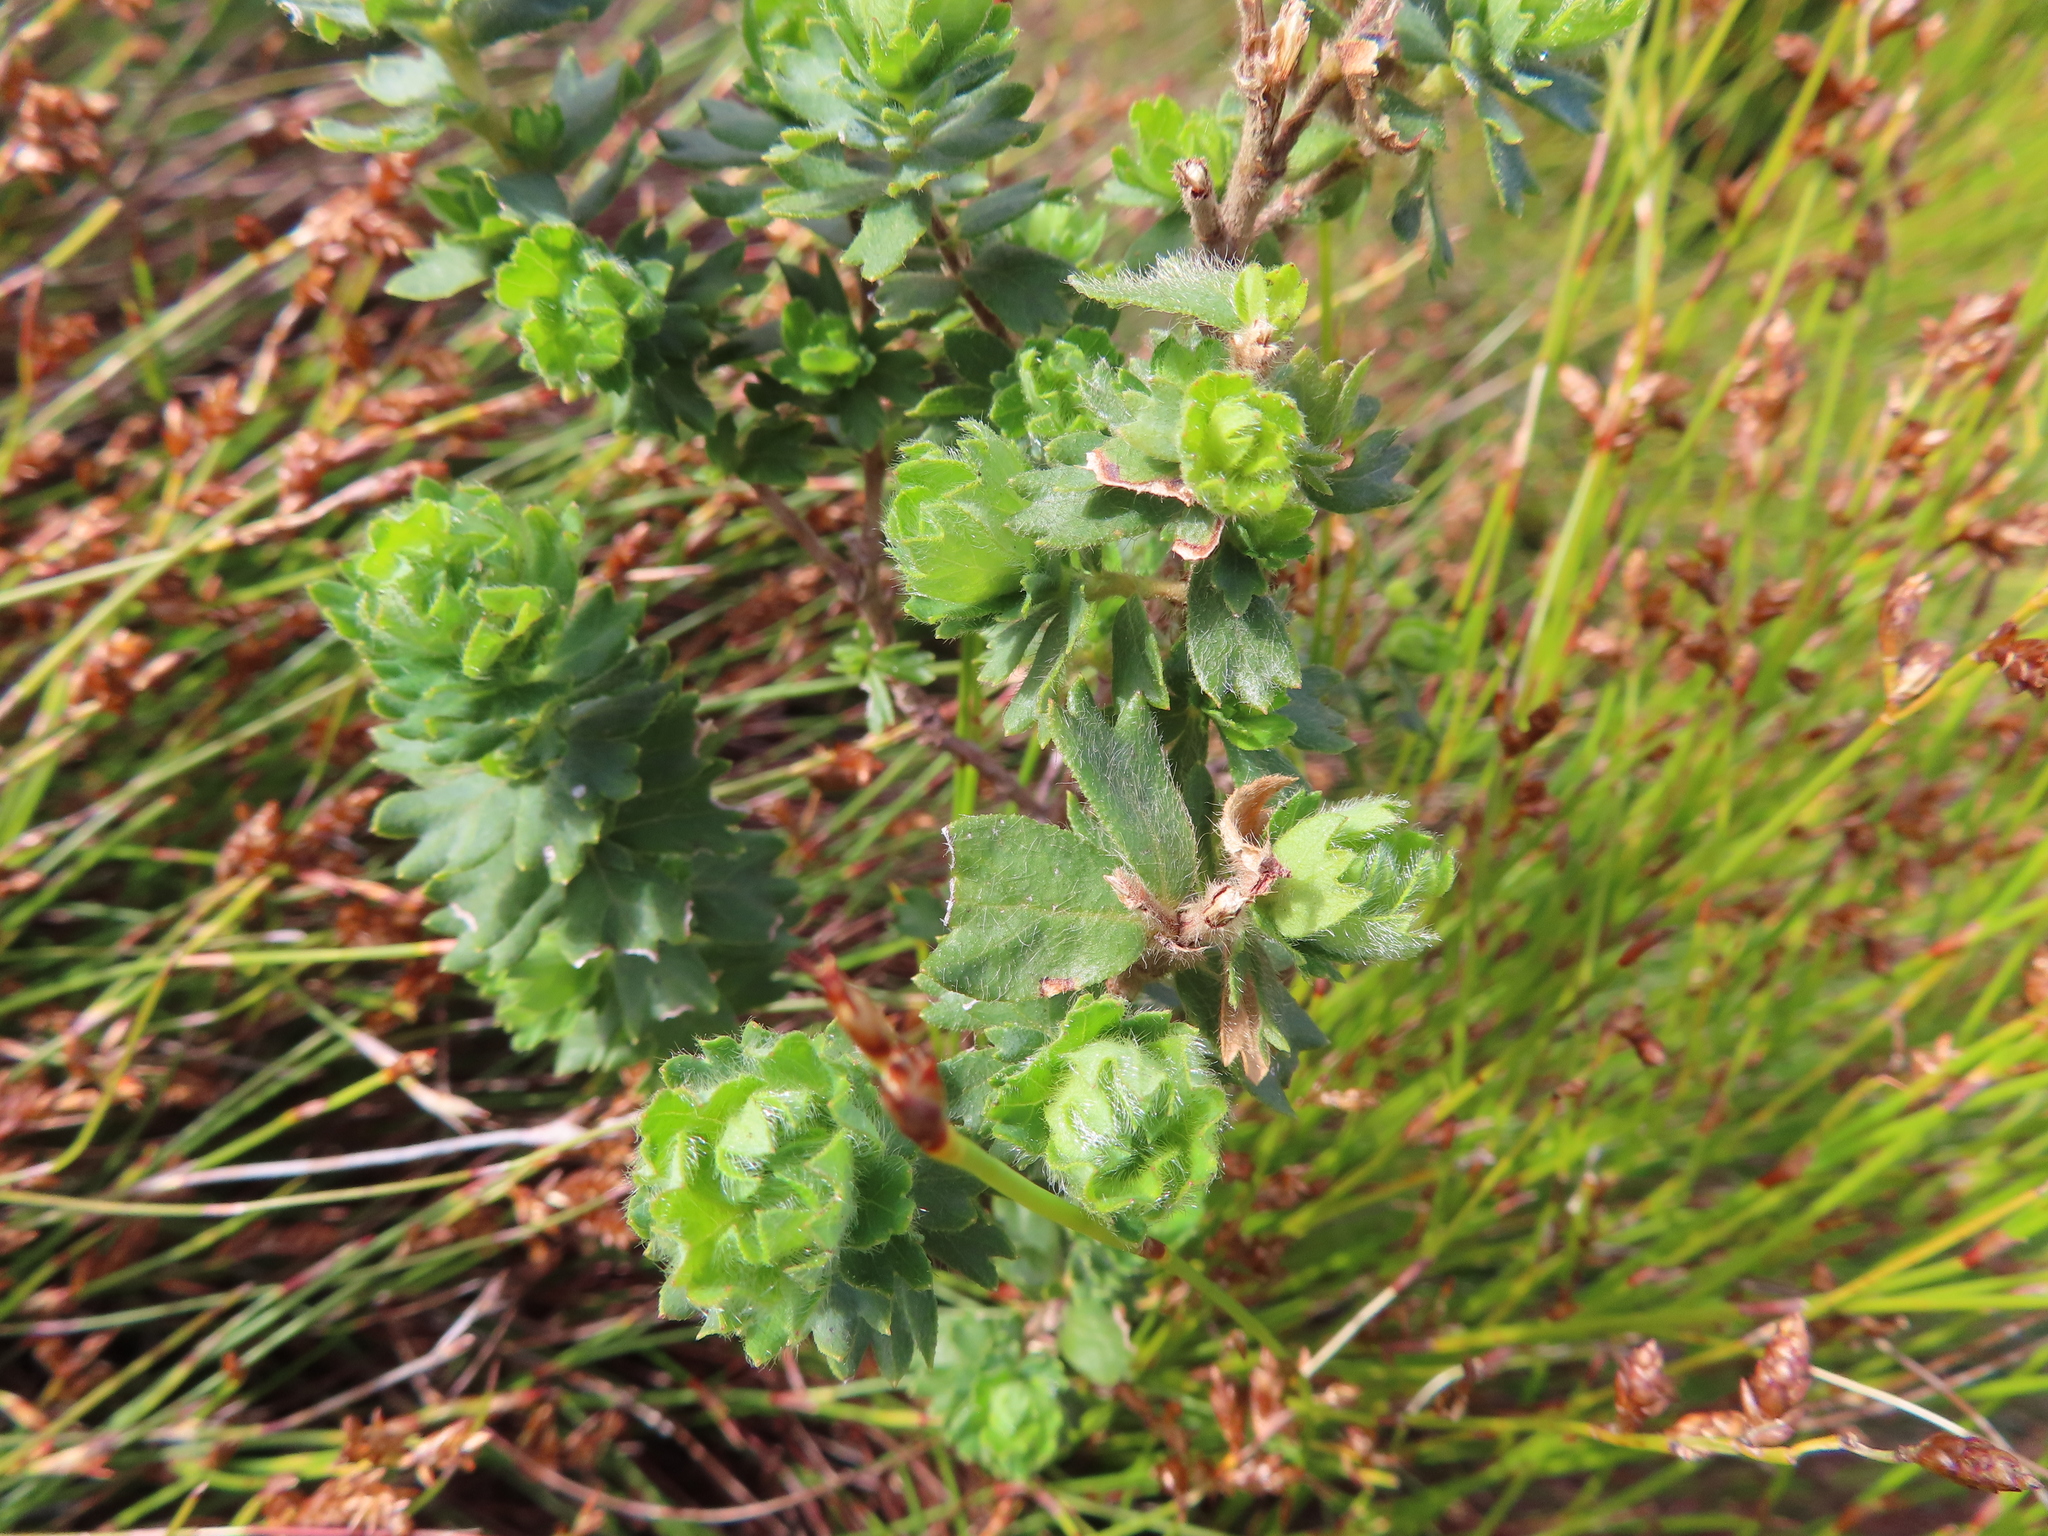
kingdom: Plantae
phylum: Tracheophyta
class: Magnoliopsida
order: Rosales
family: Rosaceae
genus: Cliffortia
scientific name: Cliffortia polygonifolia
